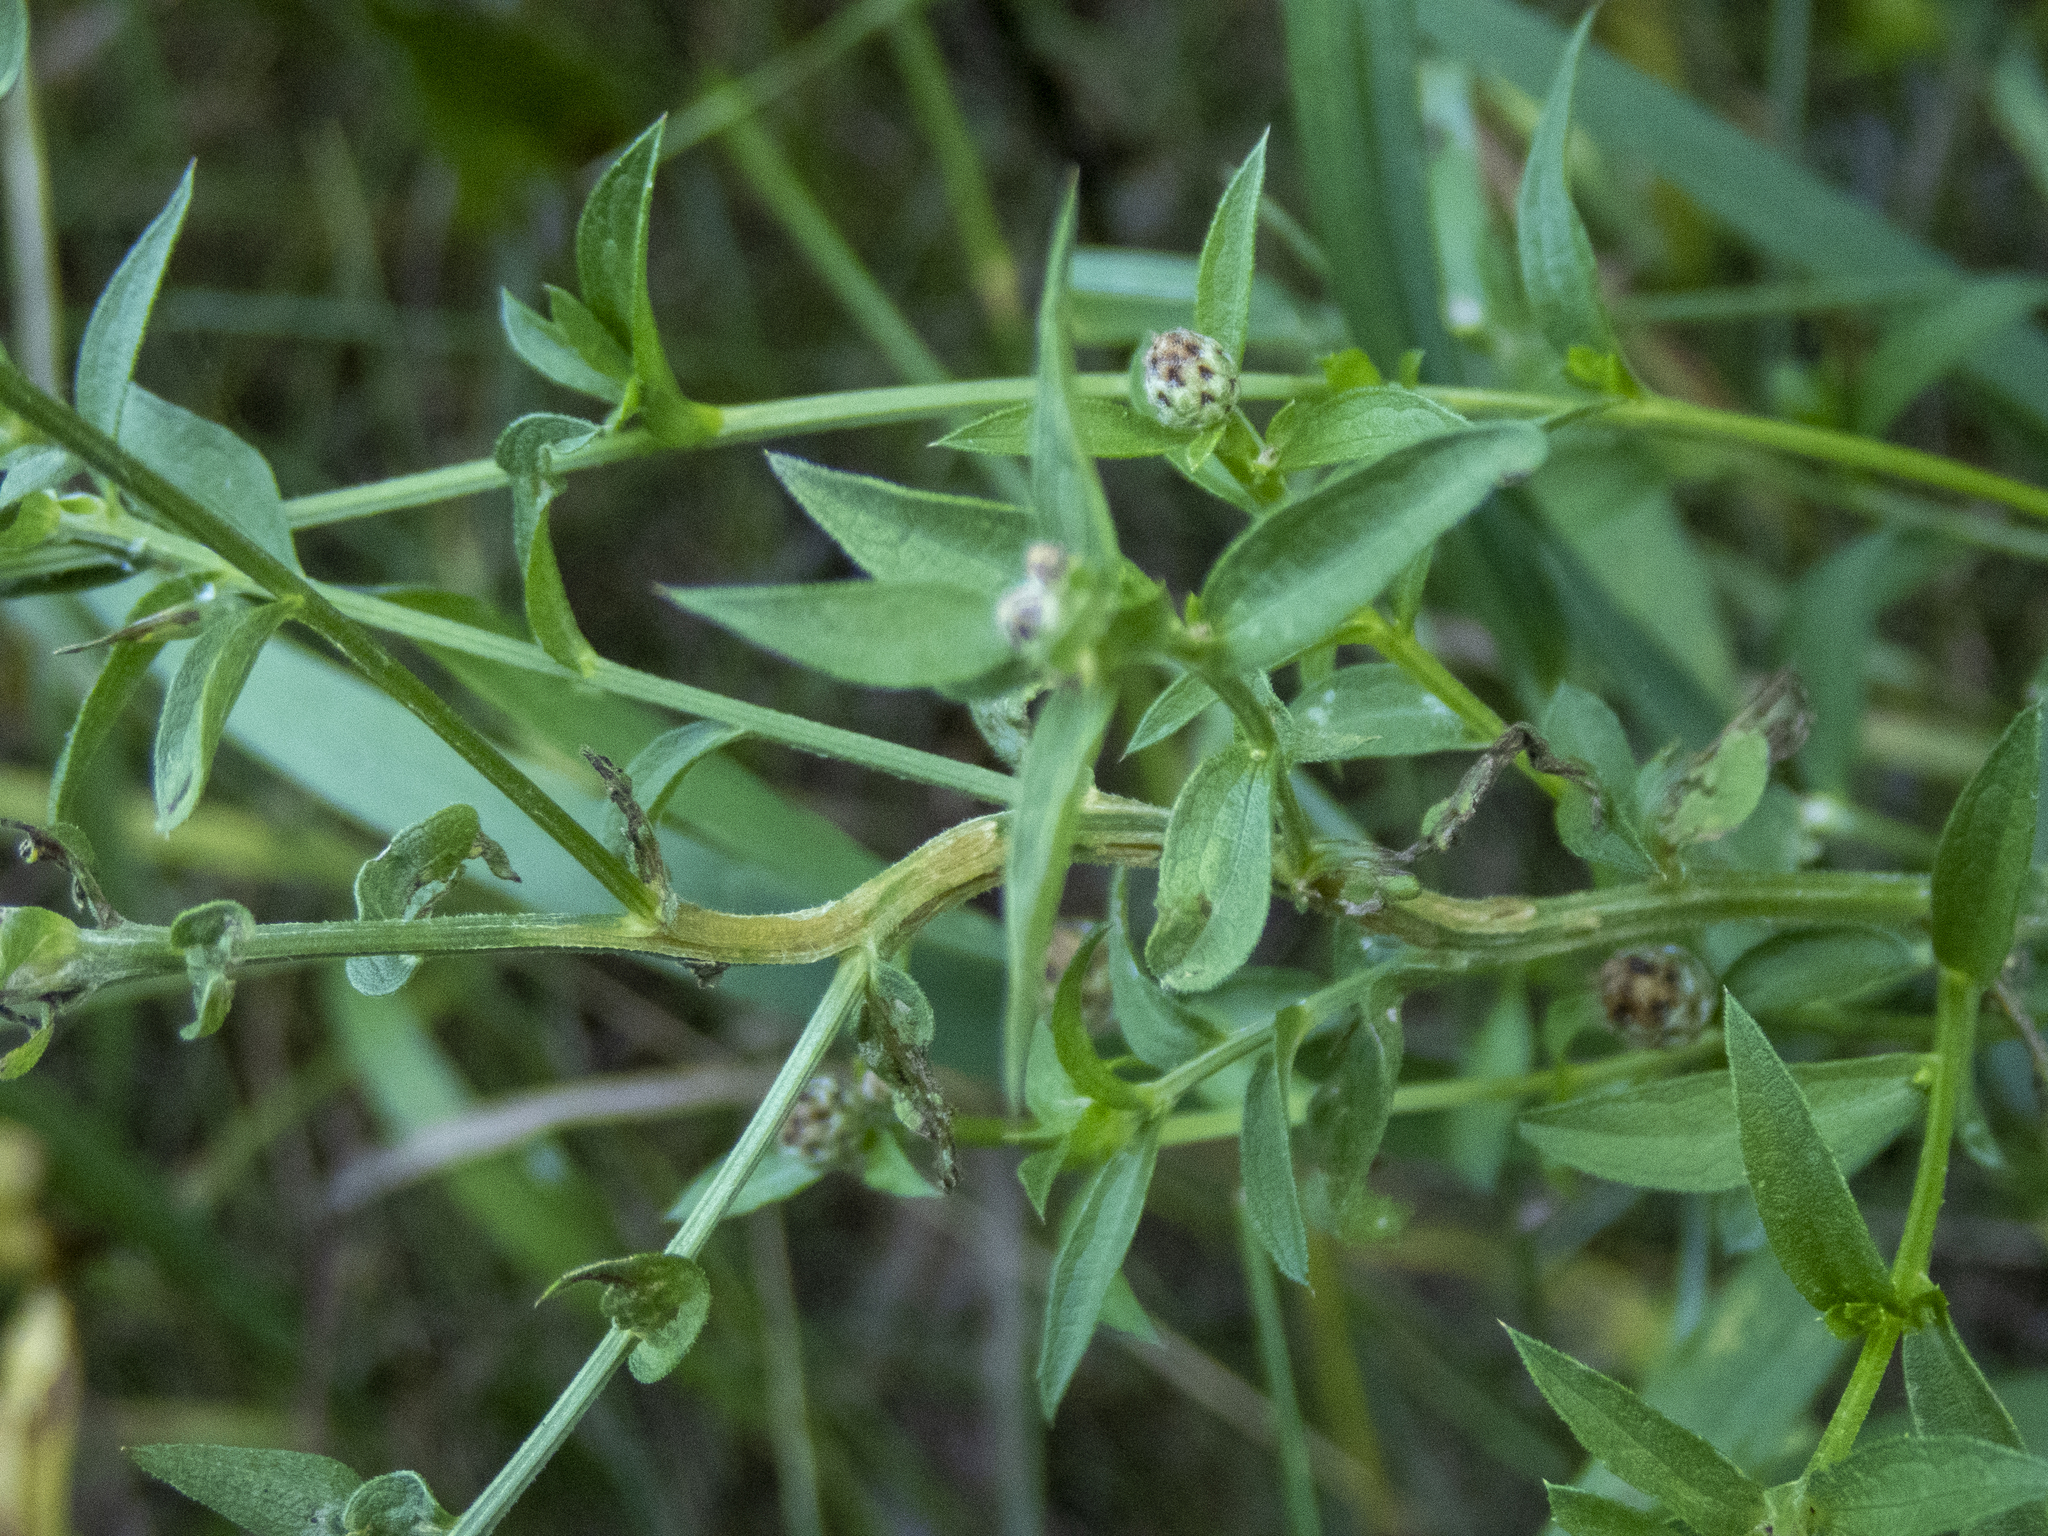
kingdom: Plantae
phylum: Tracheophyta
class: Magnoliopsida
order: Asterales
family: Asteraceae
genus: Centaurea
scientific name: Centaurea jacea
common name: Brown knapweed
